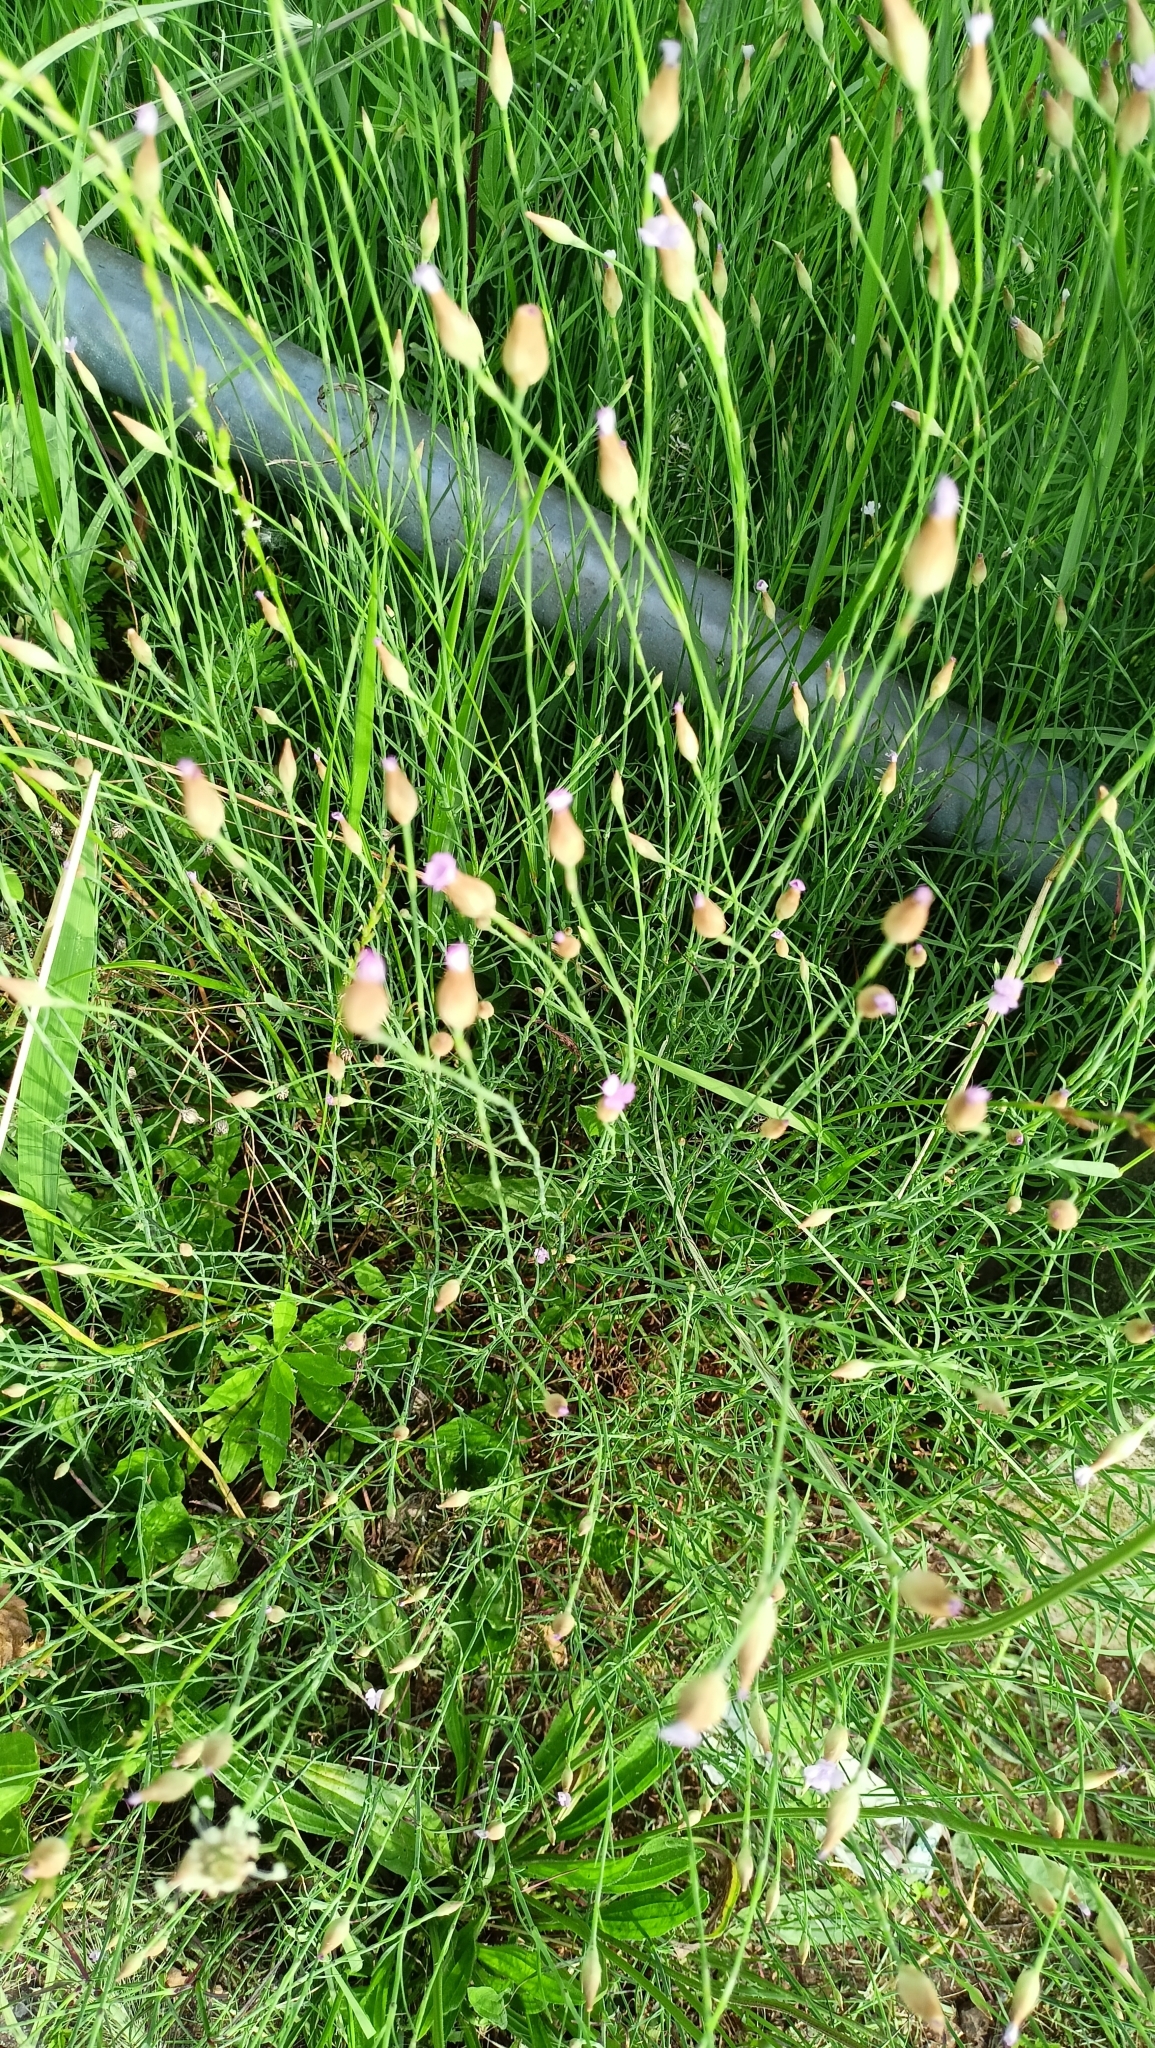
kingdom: Plantae
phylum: Tracheophyta
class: Magnoliopsida
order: Caryophyllales
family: Caryophyllaceae
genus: Petrorhagia
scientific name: Petrorhagia prolifera
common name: Proliferous pink
